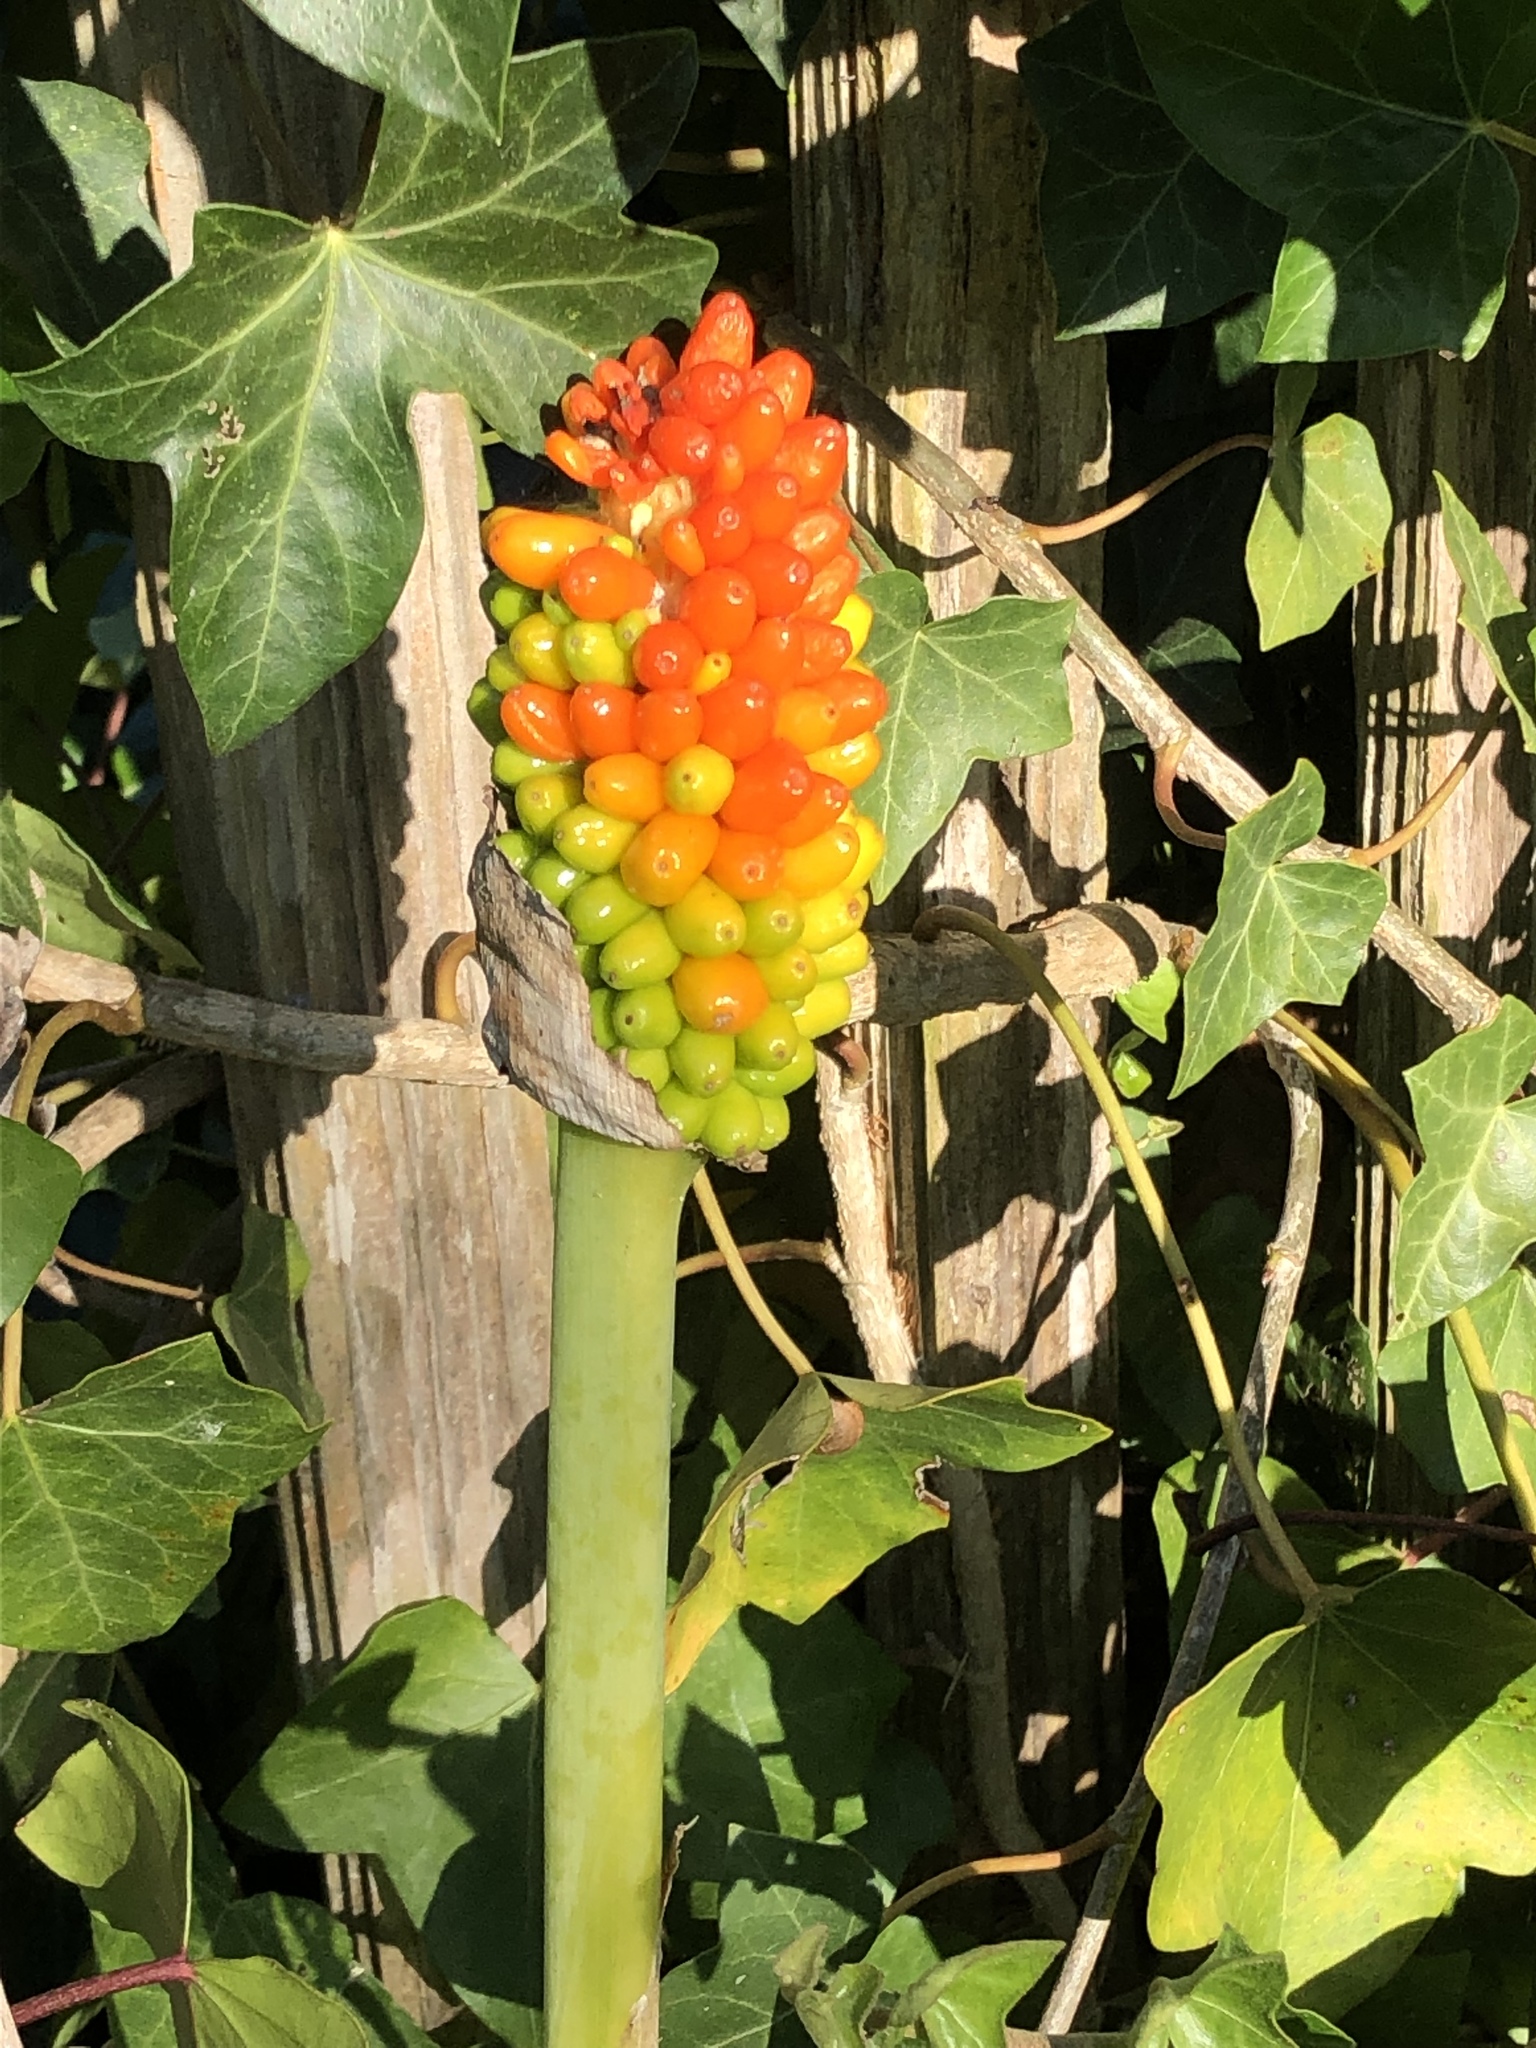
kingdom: Plantae
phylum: Tracheophyta
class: Liliopsida
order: Alismatales
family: Araceae
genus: Dracunculus
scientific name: Dracunculus vulgaris
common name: Dragon arum
